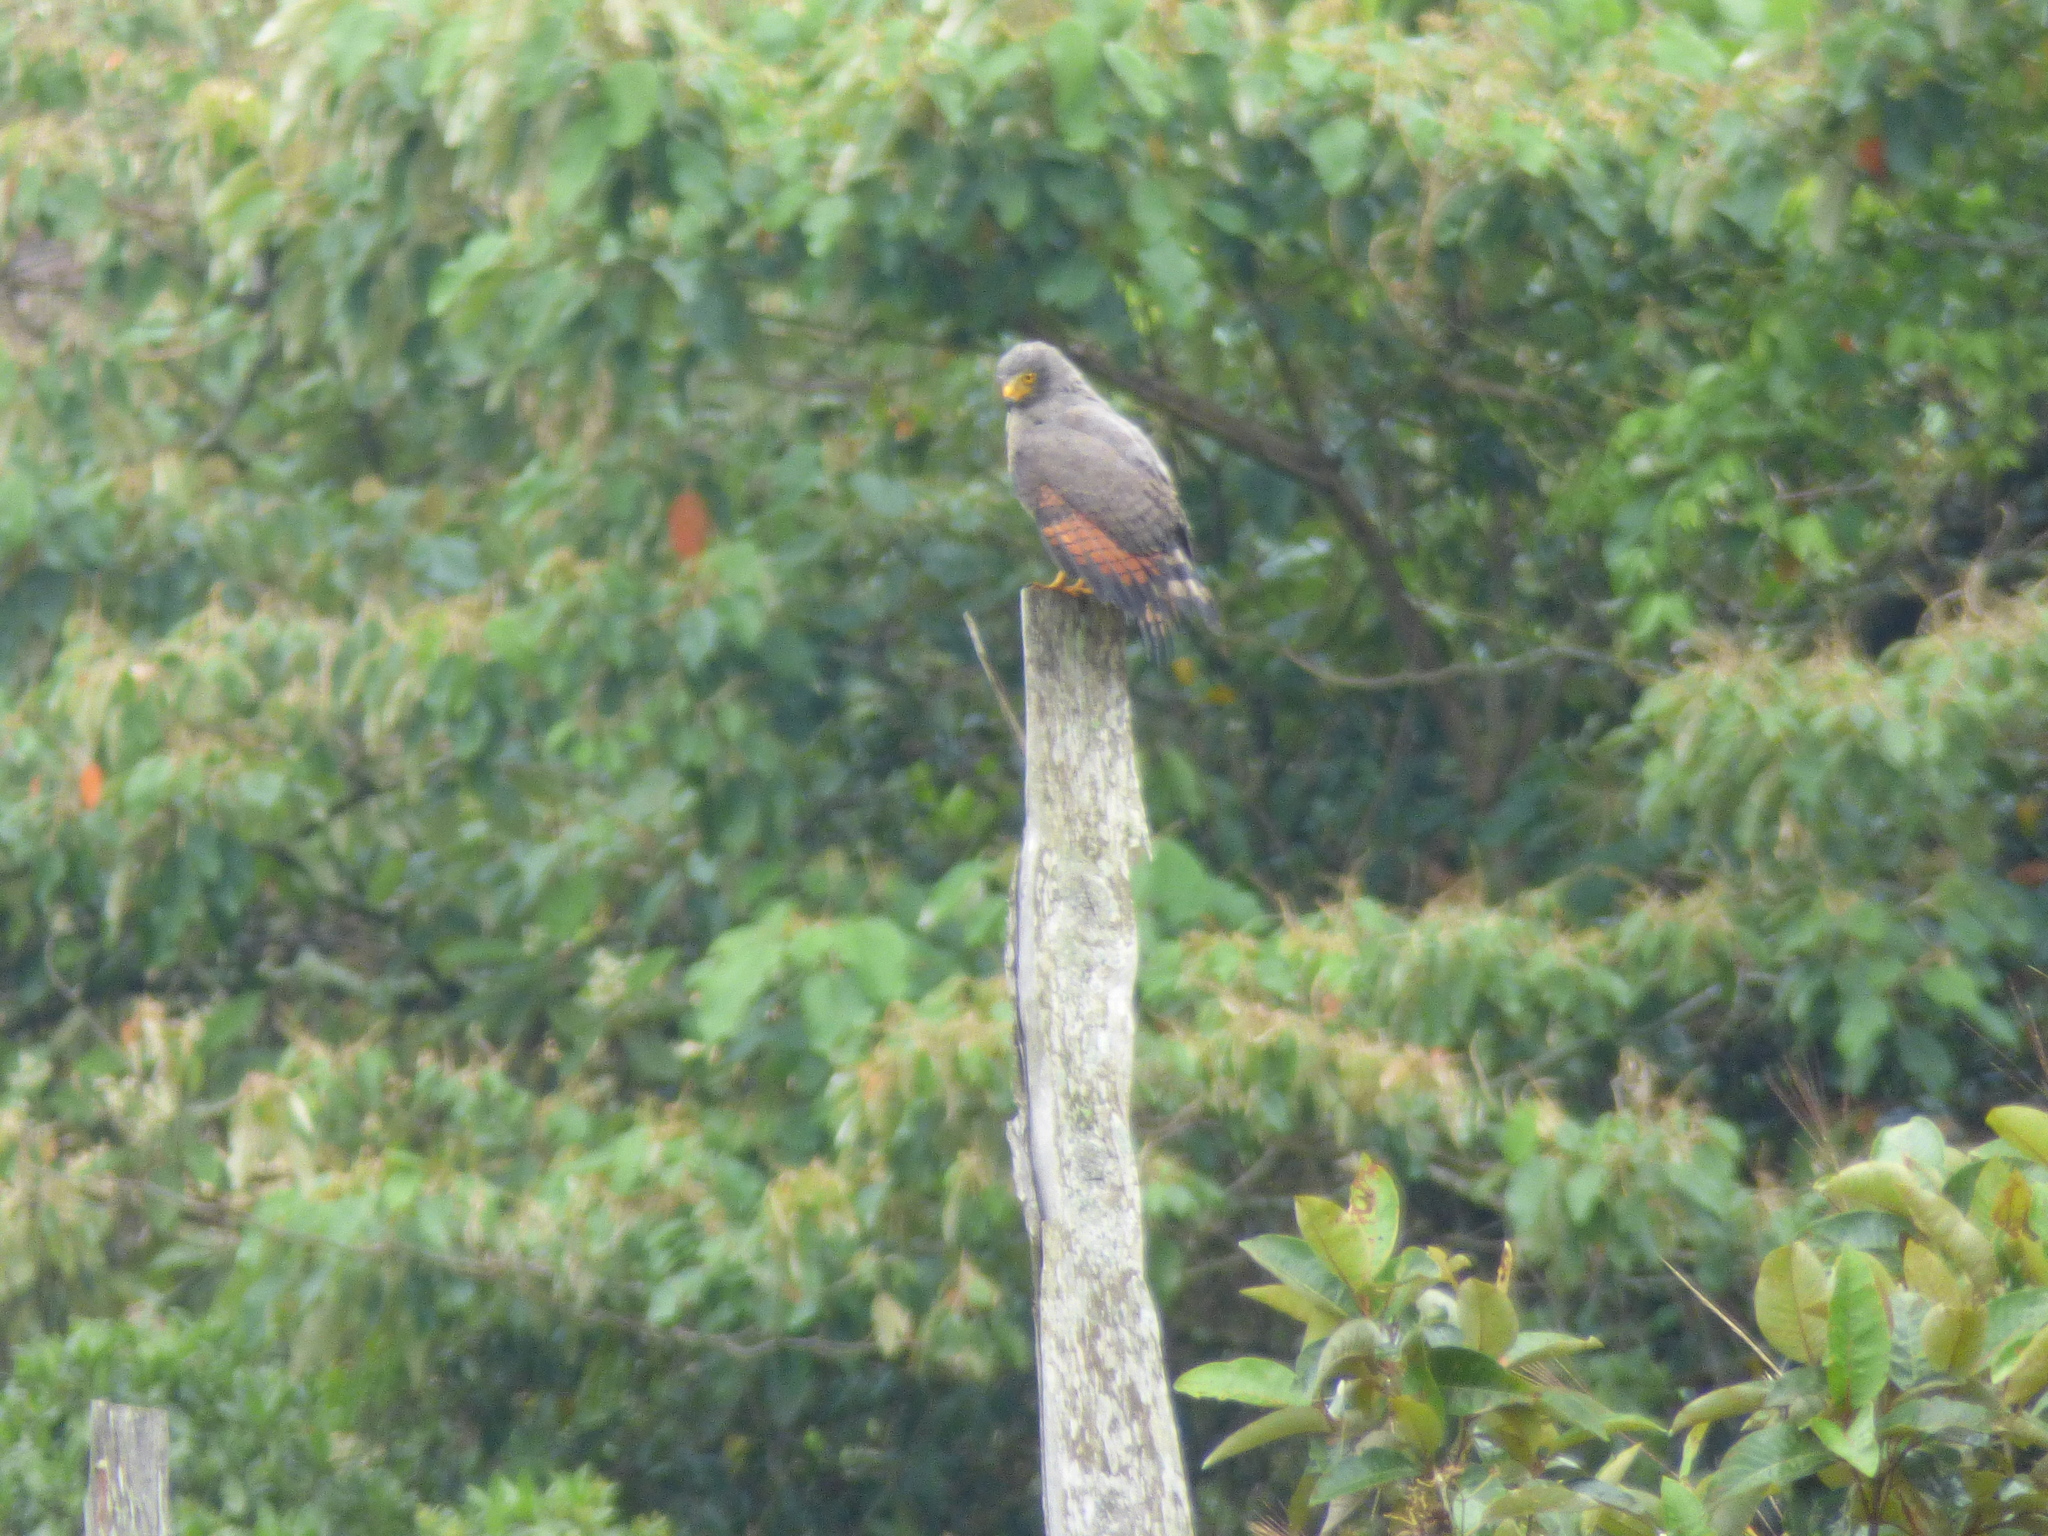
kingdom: Animalia
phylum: Chordata
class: Aves
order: Accipitriformes
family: Accipitridae
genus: Rupornis
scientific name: Rupornis magnirostris
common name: Roadside hawk
